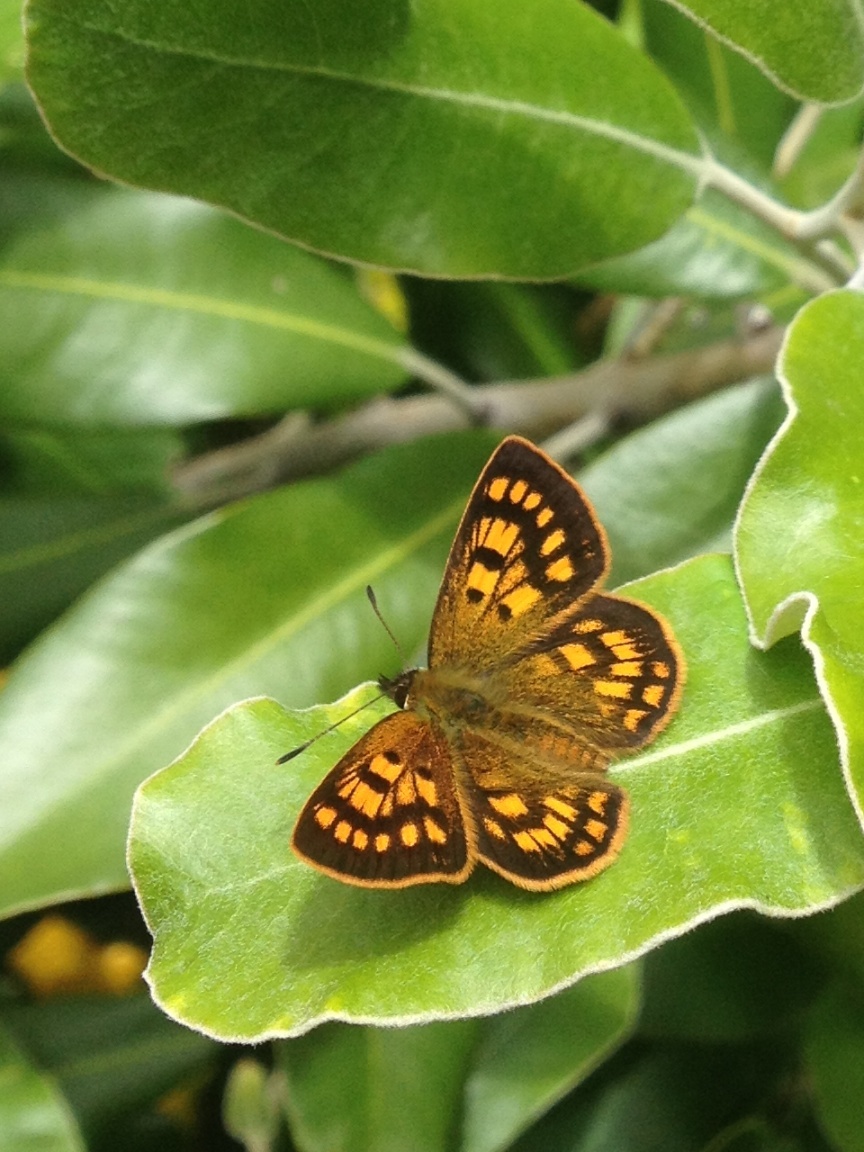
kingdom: Animalia
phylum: Arthropoda
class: Insecta
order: Lepidoptera
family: Lycaenidae
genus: Lycaena
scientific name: Lycaena feredayi
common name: Glade copper
